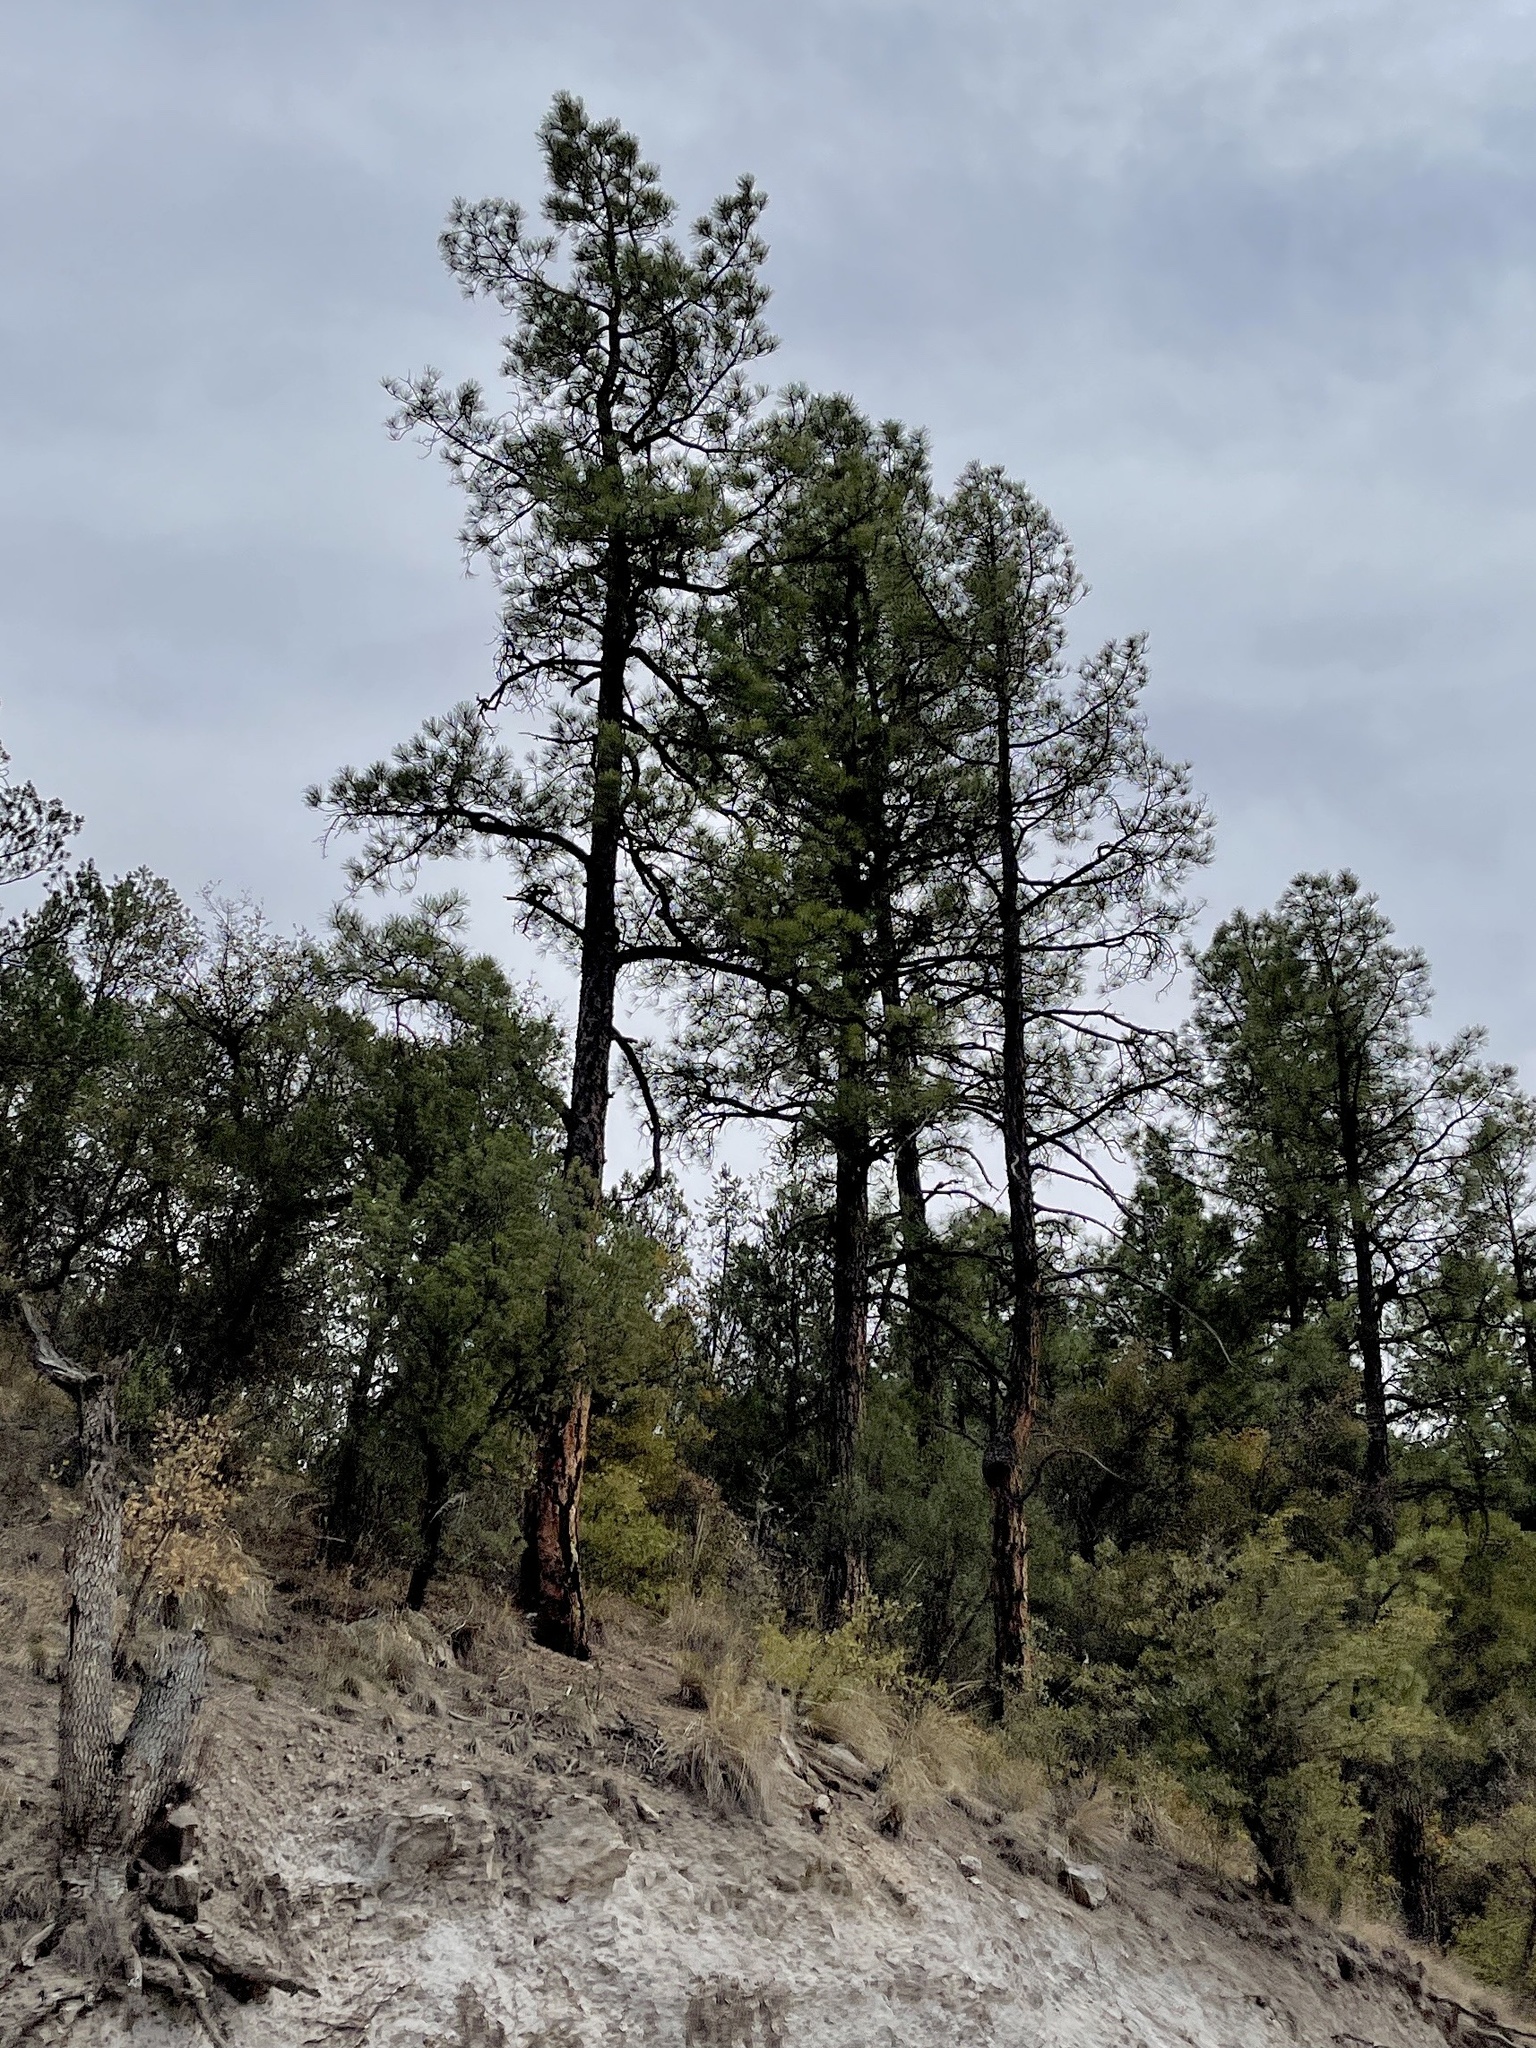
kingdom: Plantae
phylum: Tracheophyta
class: Pinopsida
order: Pinales
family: Pinaceae
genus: Pinus
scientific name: Pinus ponderosa
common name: Western yellow-pine
